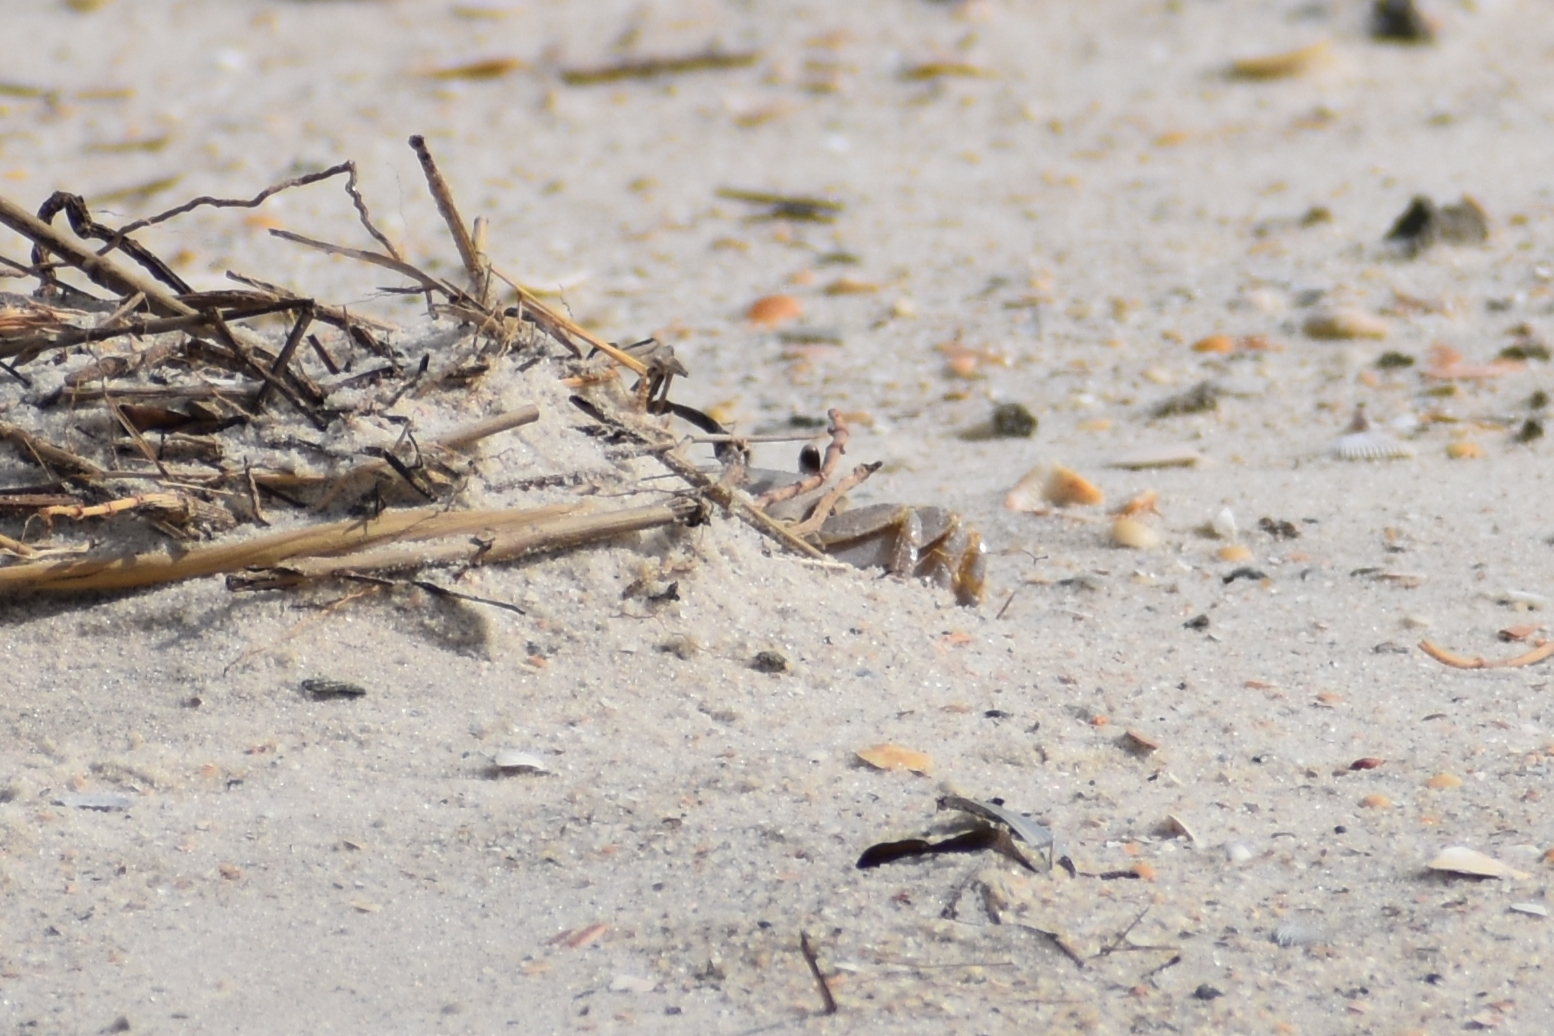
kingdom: Animalia
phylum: Arthropoda
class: Malacostraca
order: Decapoda
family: Ocypodidae
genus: Ocypode
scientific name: Ocypode quadrata
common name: Ghost crab
